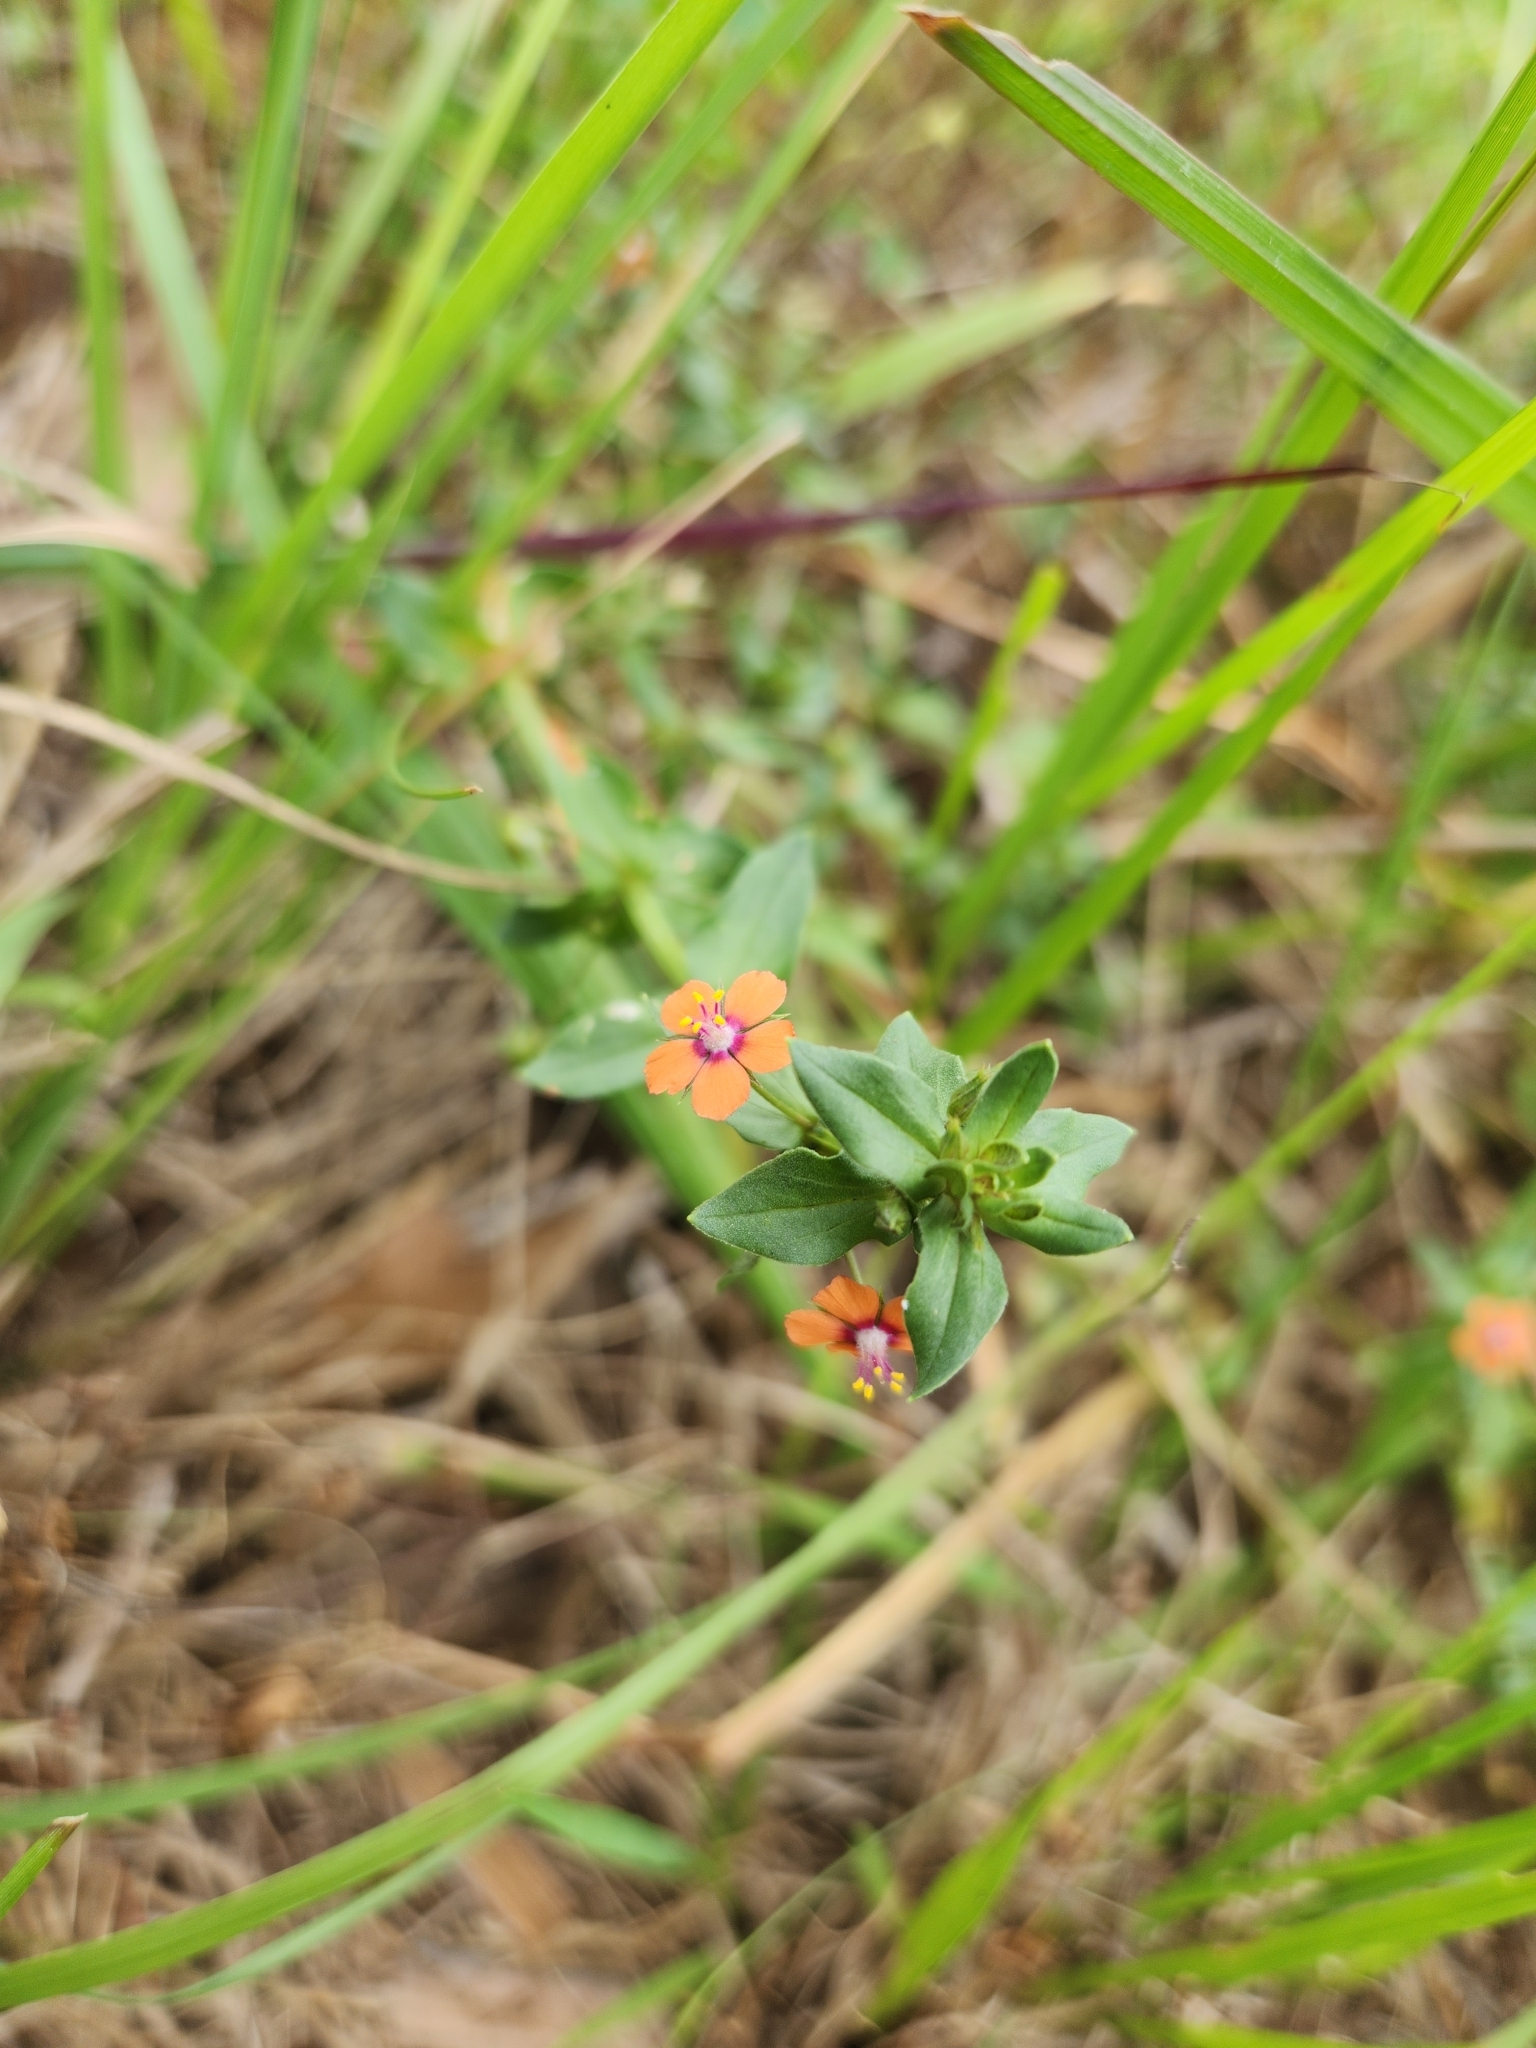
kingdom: Plantae
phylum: Tracheophyta
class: Magnoliopsida
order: Ericales
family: Primulaceae
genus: Lysimachia
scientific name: Lysimachia arvensis
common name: Scarlet pimpernel
